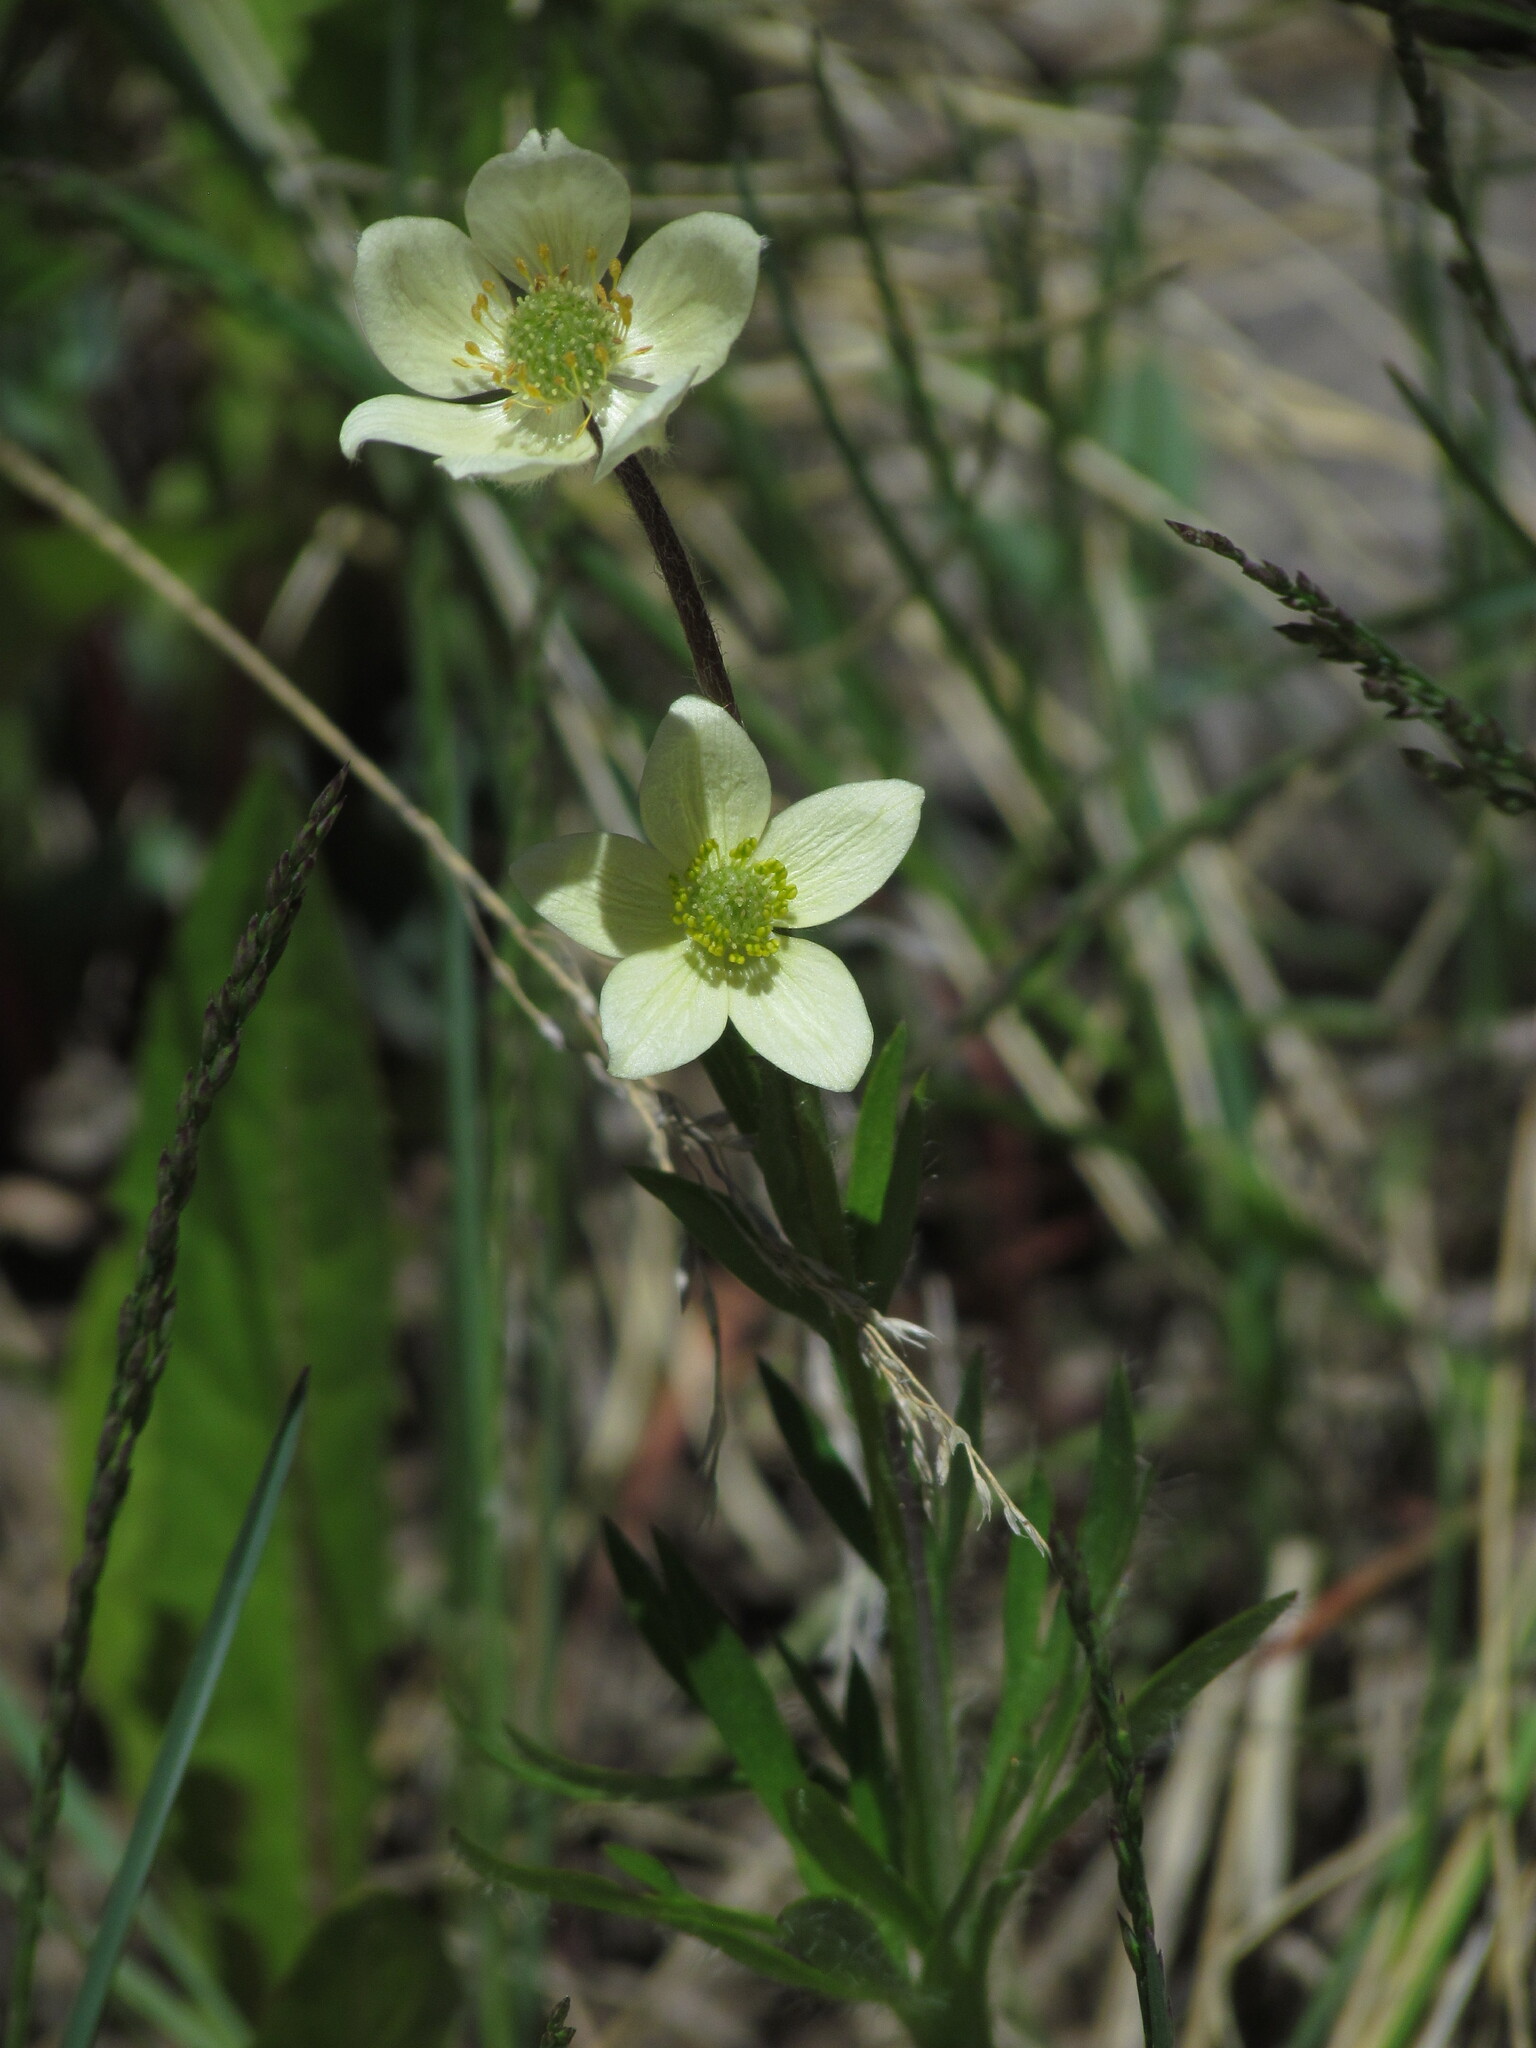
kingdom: Plantae
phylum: Tracheophyta
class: Magnoliopsida
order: Ranunculales
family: Ranunculaceae
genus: Anemone
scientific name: Anemone multifida
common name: Bird's-foot anemone
